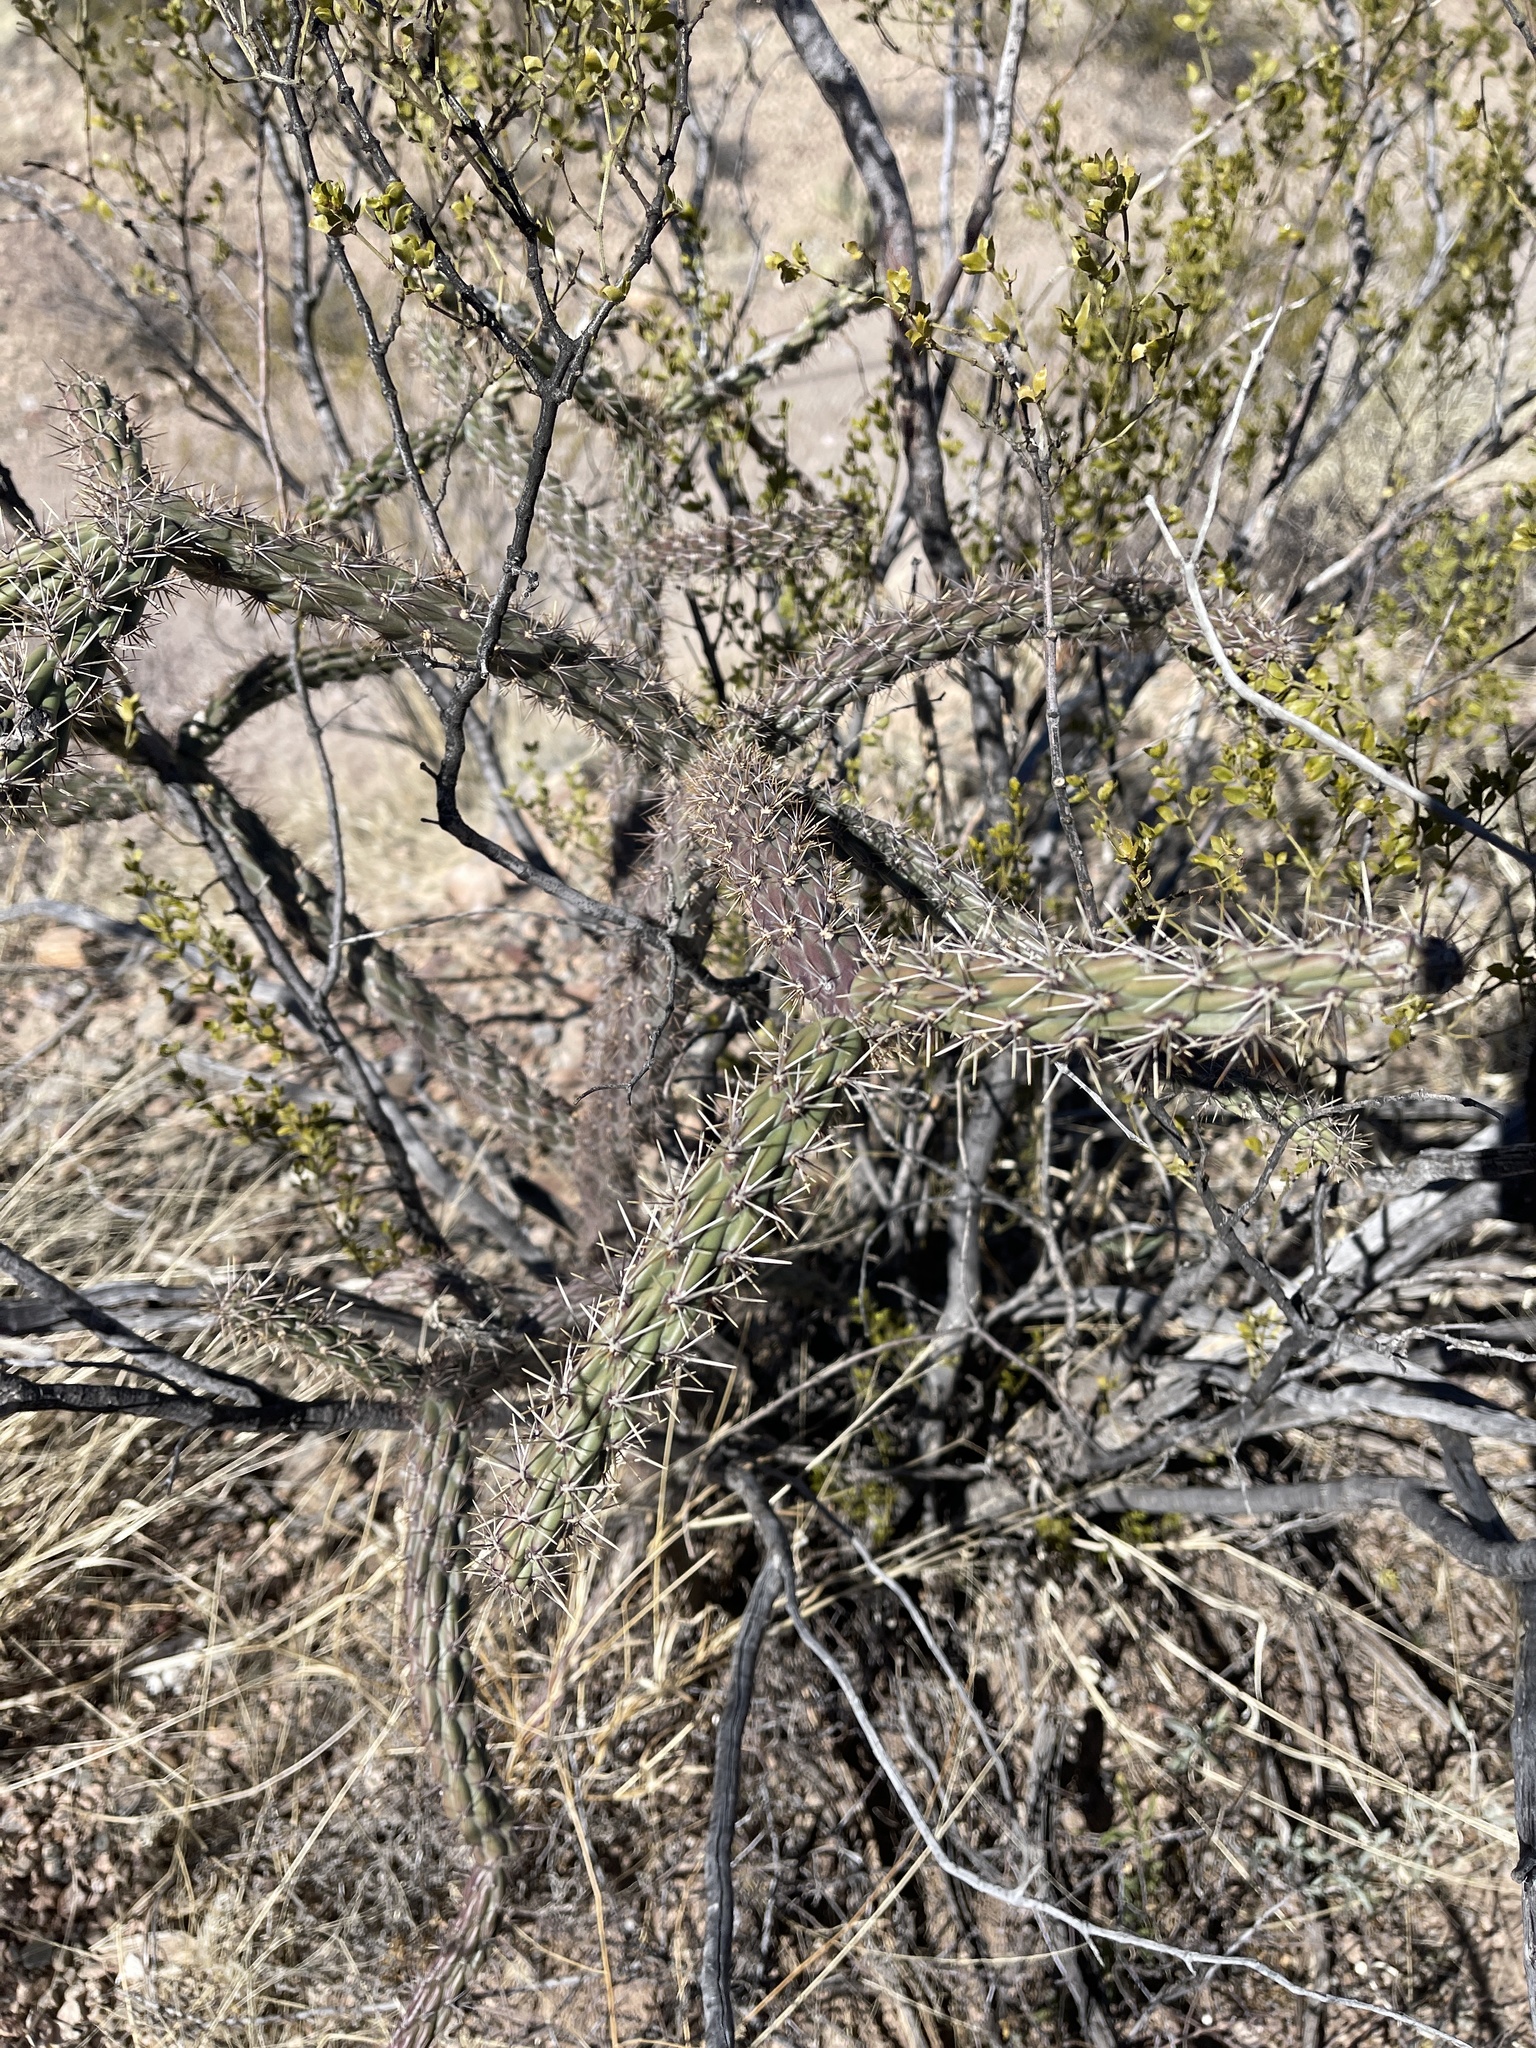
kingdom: Plantae
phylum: Tracheophyta
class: Magnoliopsida
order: Caryophyllales
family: Cactaceae
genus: Cylindropuntia
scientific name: Cylindropuntia thurberi
